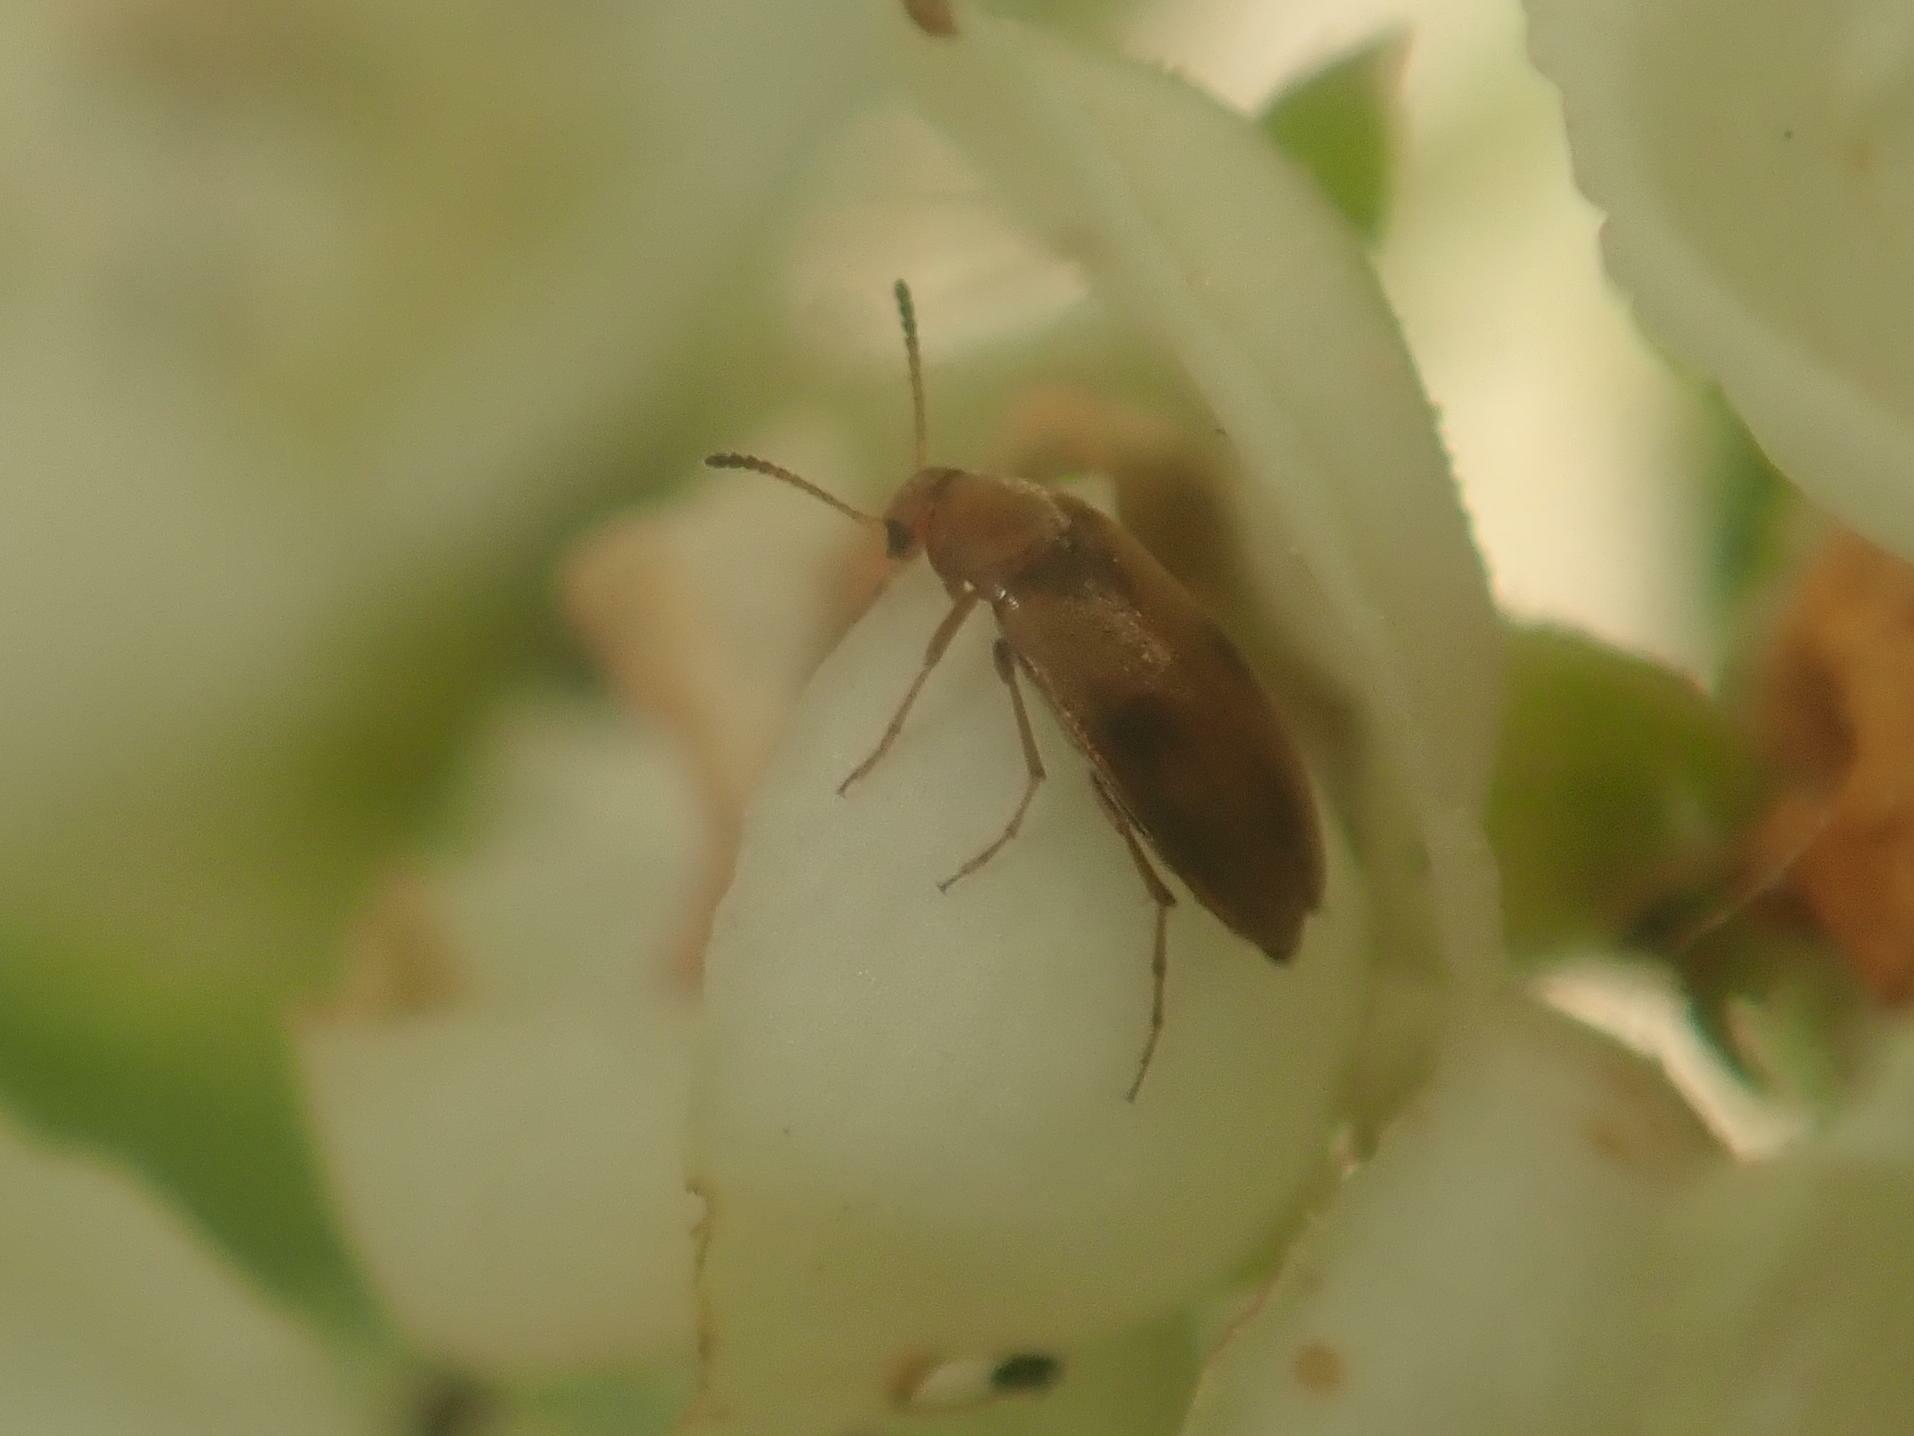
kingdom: Animalia
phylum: Arthropoda
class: Insecta
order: Coleoptera
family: Scraptiidae
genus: Anaspis
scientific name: Anaspis maculata
